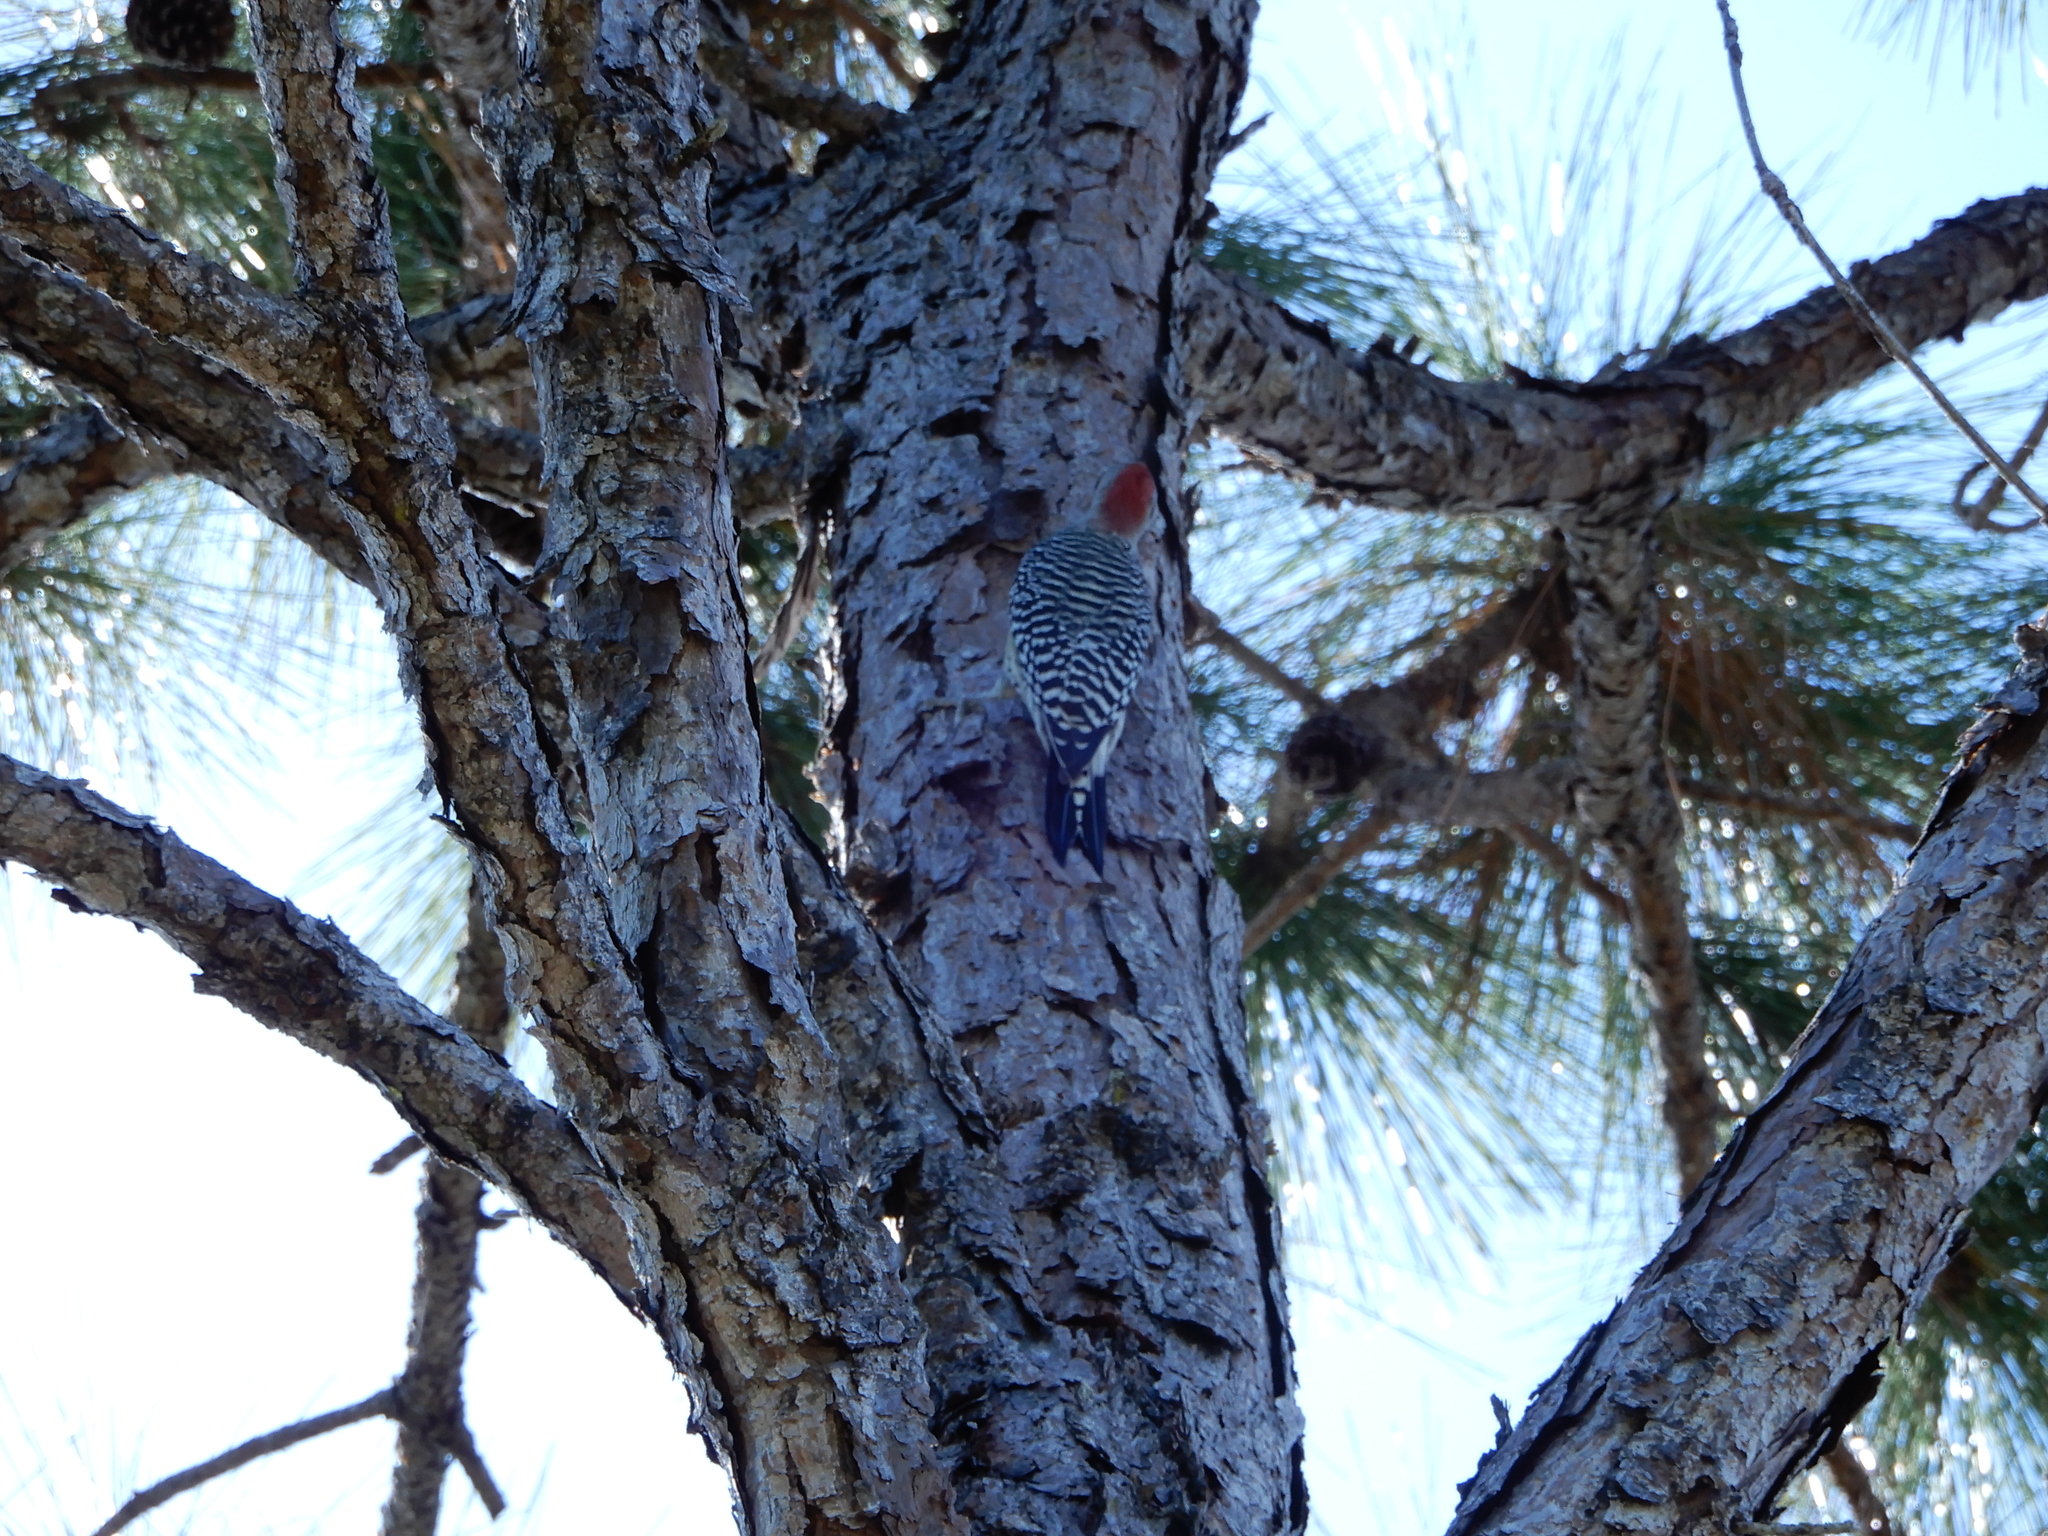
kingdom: Animalia
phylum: Chordata
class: Aves
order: Piciformes
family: Picidae
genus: Melanerpes
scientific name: Melanerpes carolinus
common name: Red-bellied woodpecker
